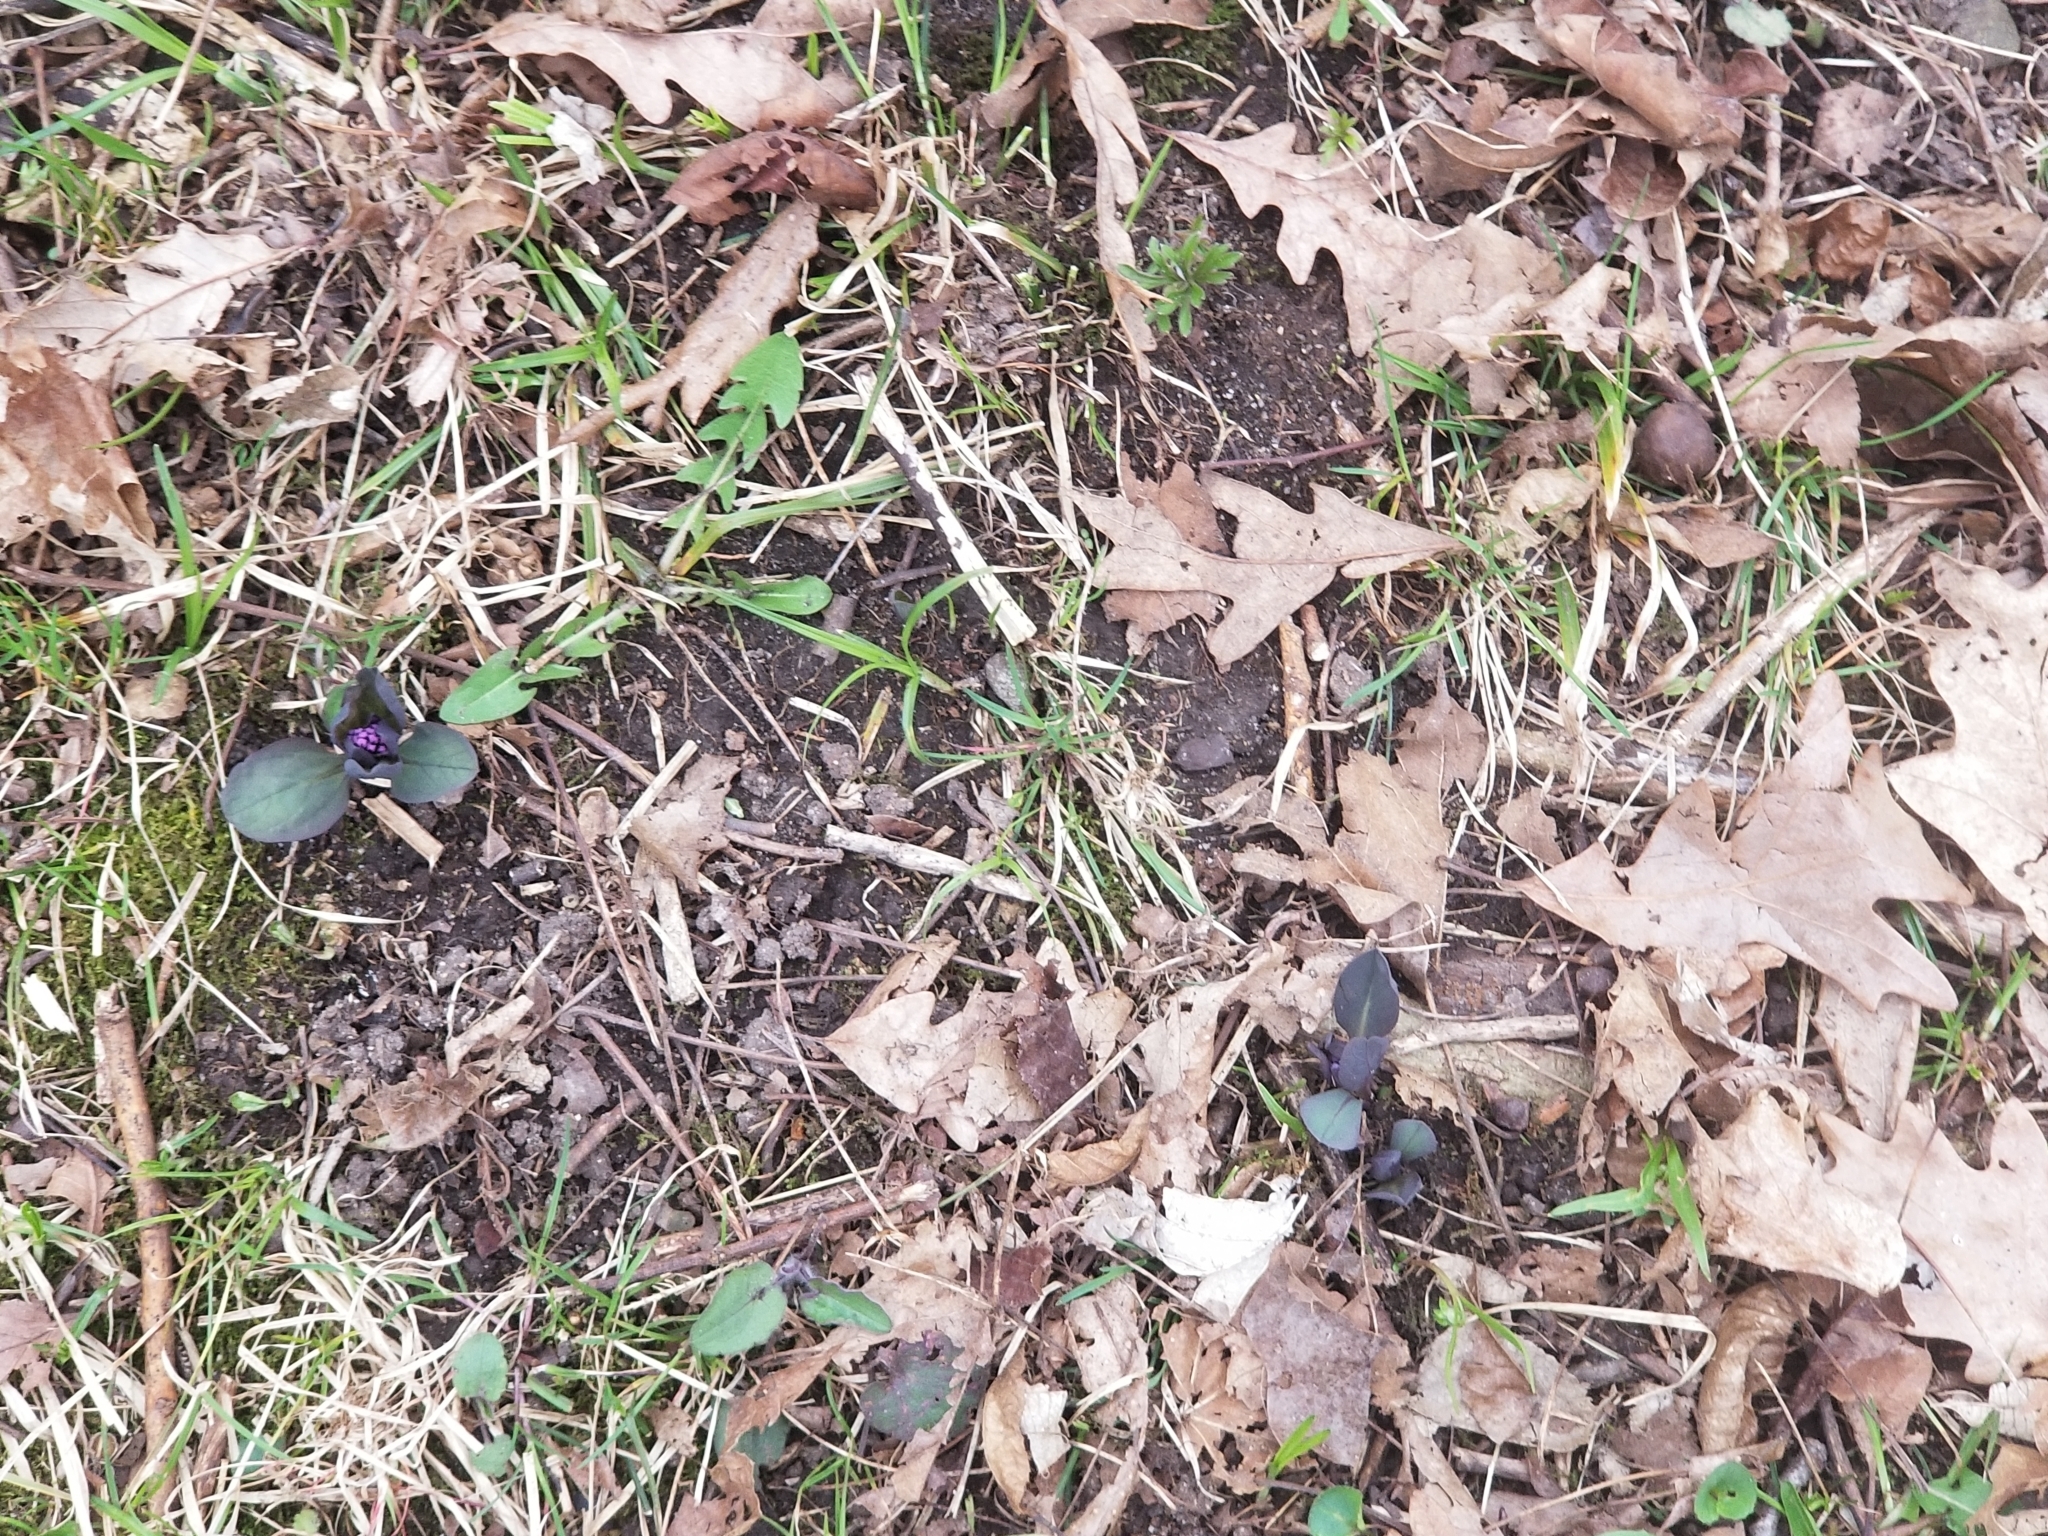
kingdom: Plantae
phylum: Tracheophyta
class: Magnoliopsida
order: Boraginales
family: Boraginaceae
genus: Mertensia
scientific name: Mertensia virginica
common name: Virginia bluebells
